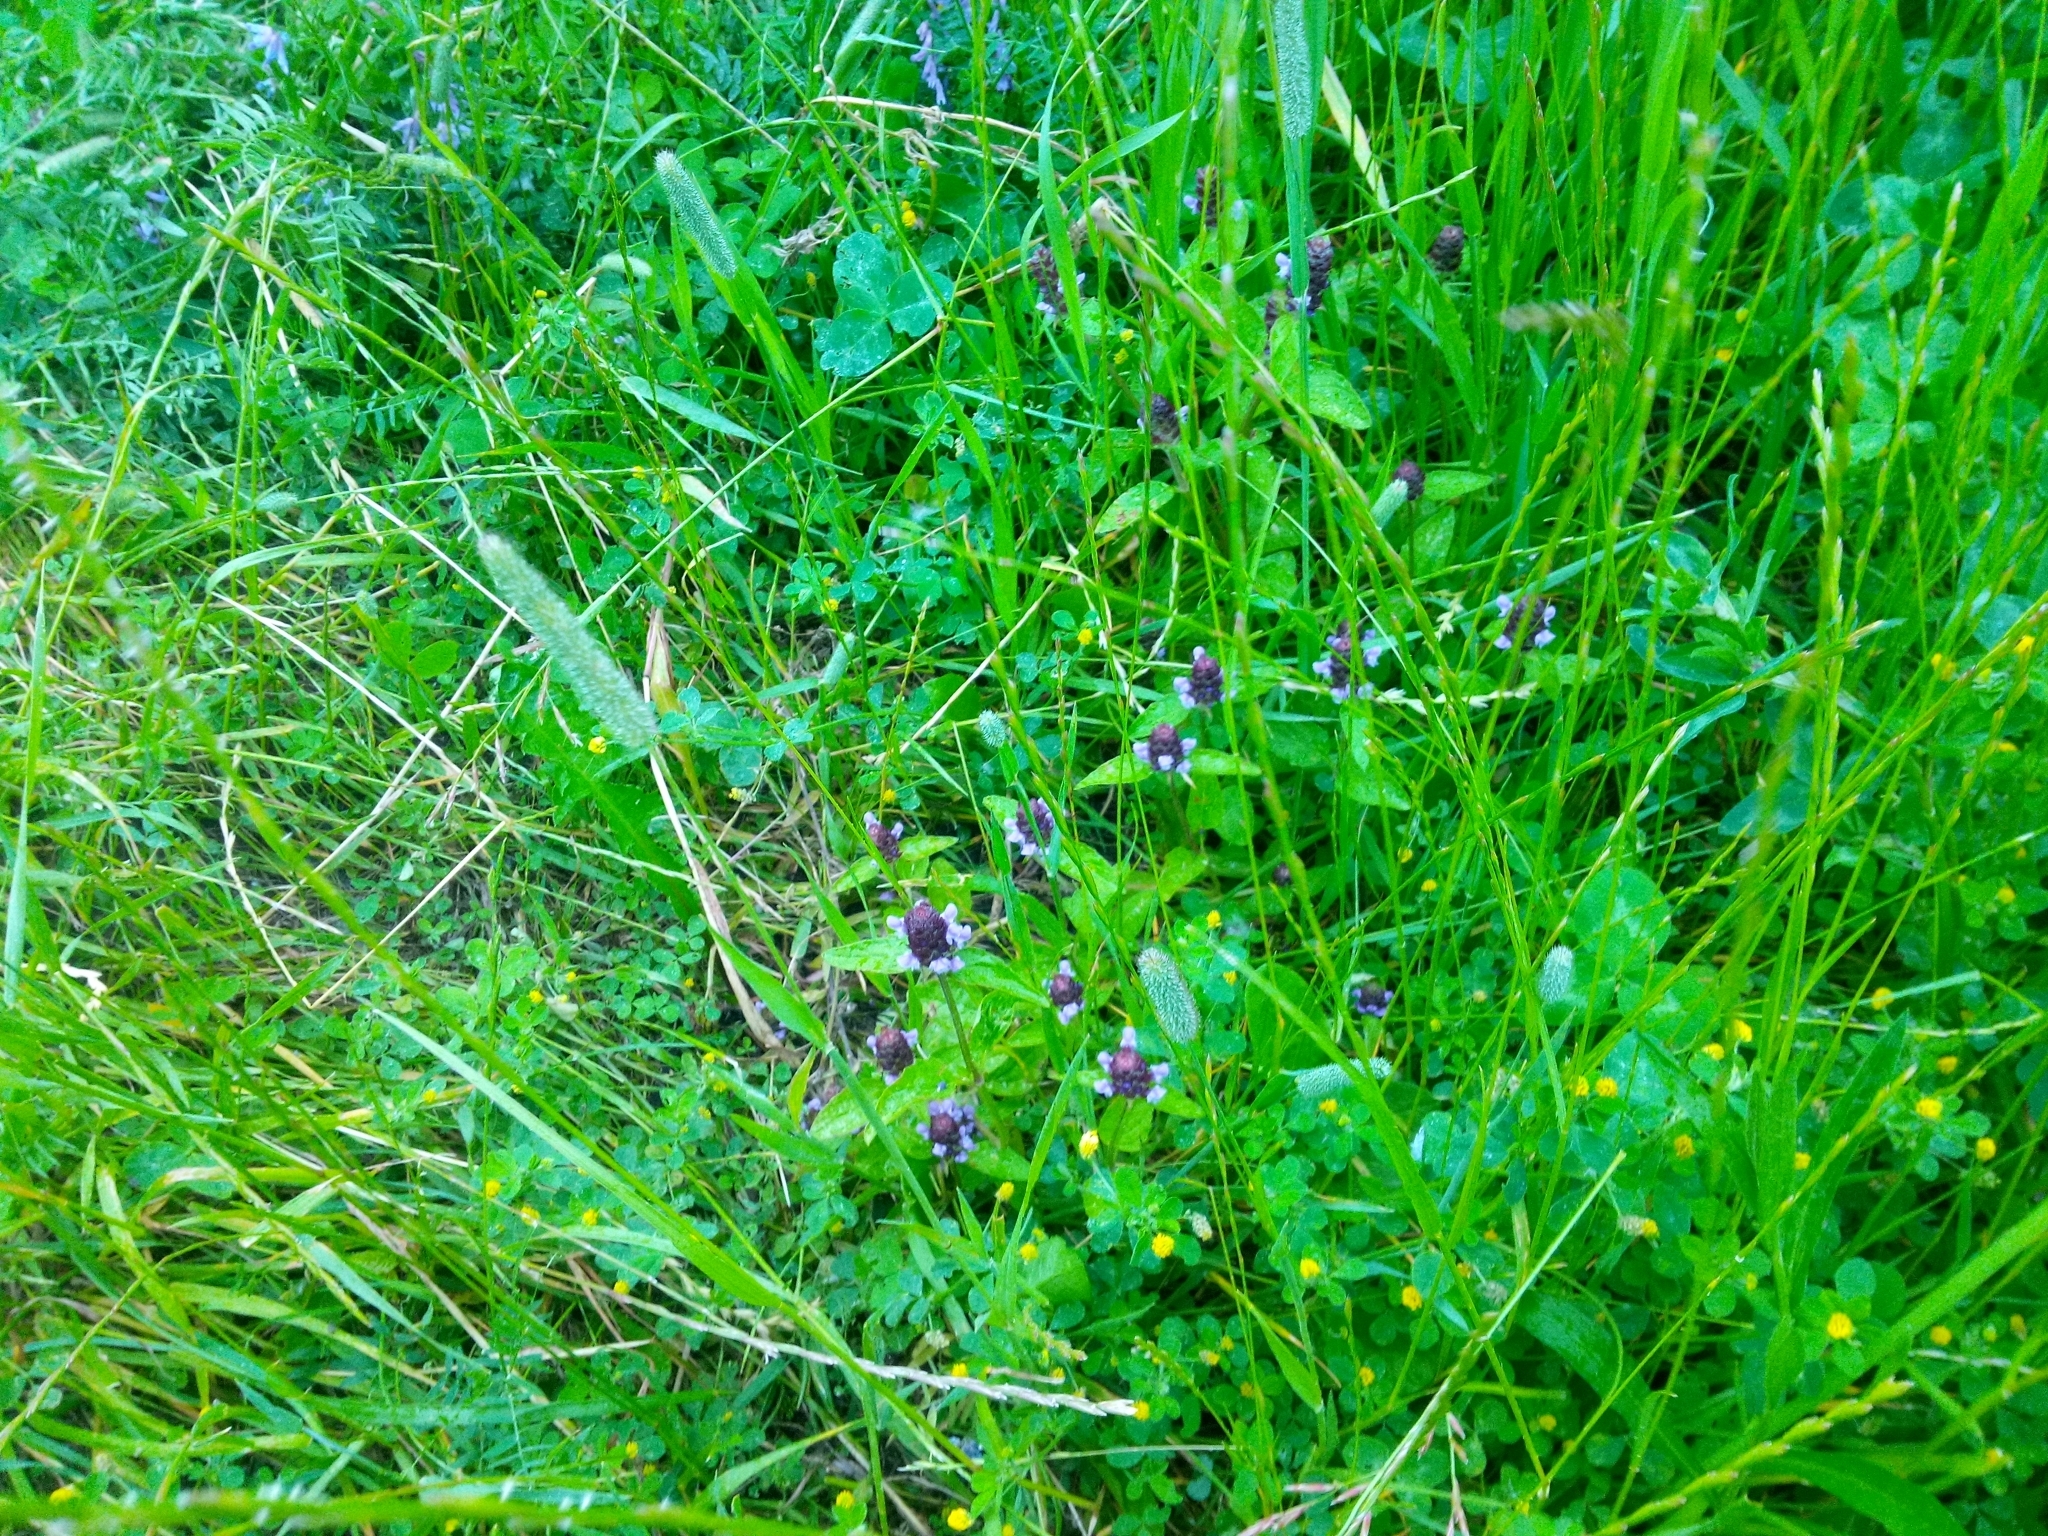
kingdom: Plantae
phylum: Tracheophyta
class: Magnoliopsida
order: Lamiales
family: Lamiaceae
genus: Prunella
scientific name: Prunella vulgaris
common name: Heal-all
